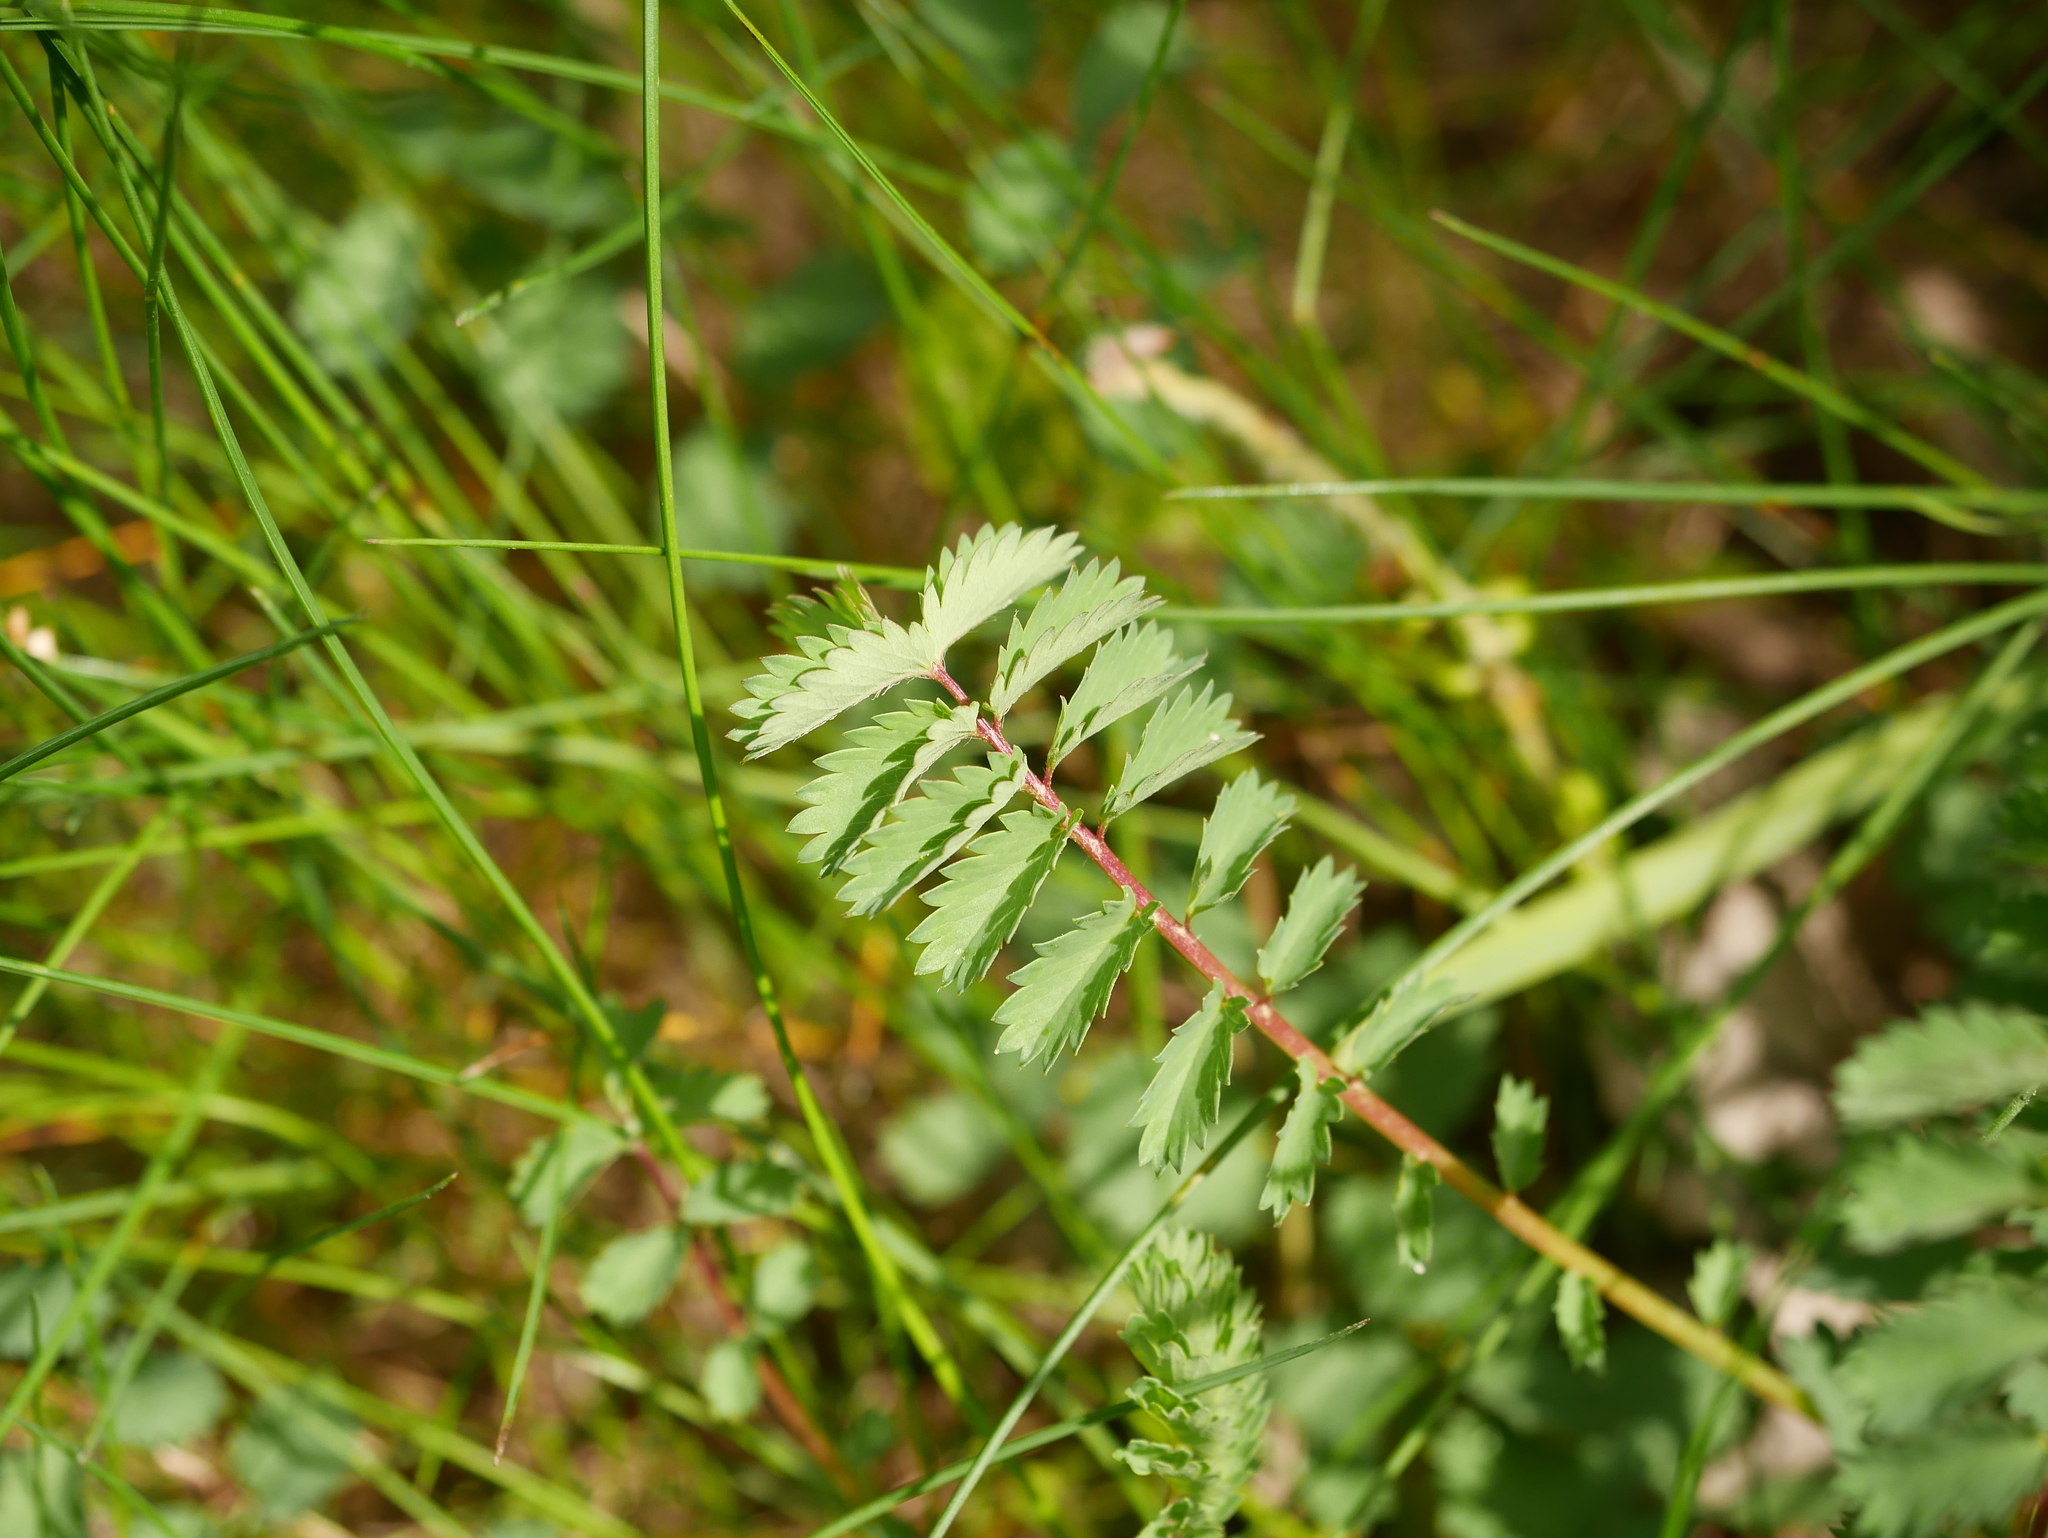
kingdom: Plantae
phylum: Tracheophyta
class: Magnoliopsida
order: Rosales
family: Rosaceae
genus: Poterium
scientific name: Poterium sanguisorba
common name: Salad burnet
